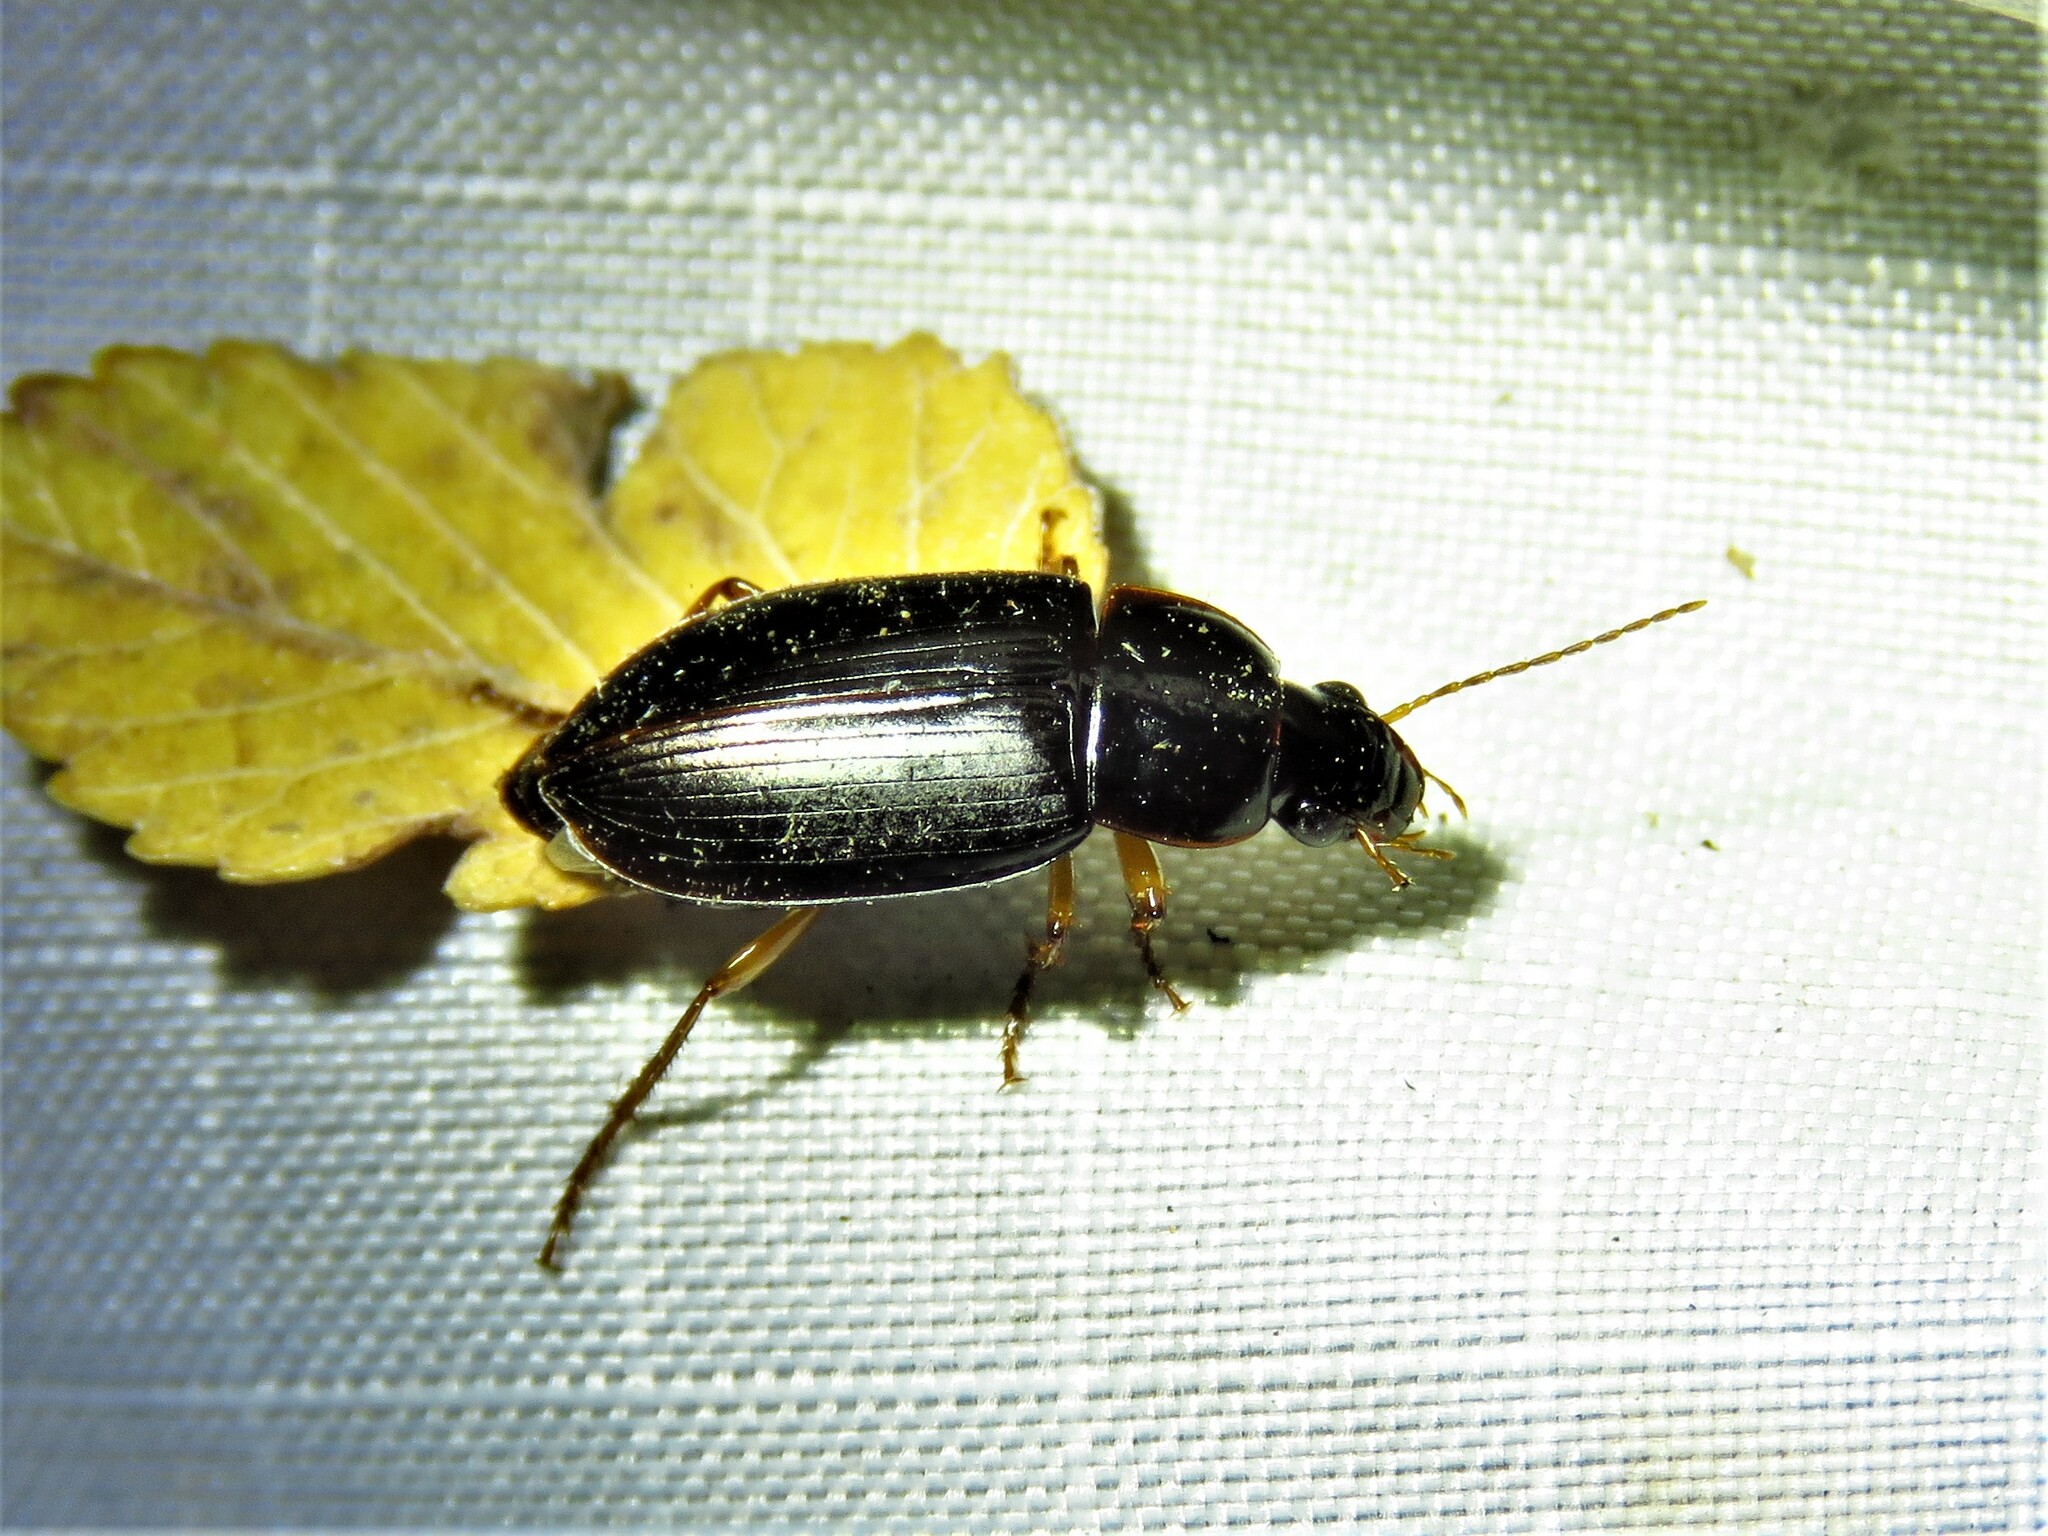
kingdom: Animalia
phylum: Arthropoda
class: Insecta
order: Coleoptera
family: Carabidae
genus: Notiobia
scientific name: Notiobia terminata
